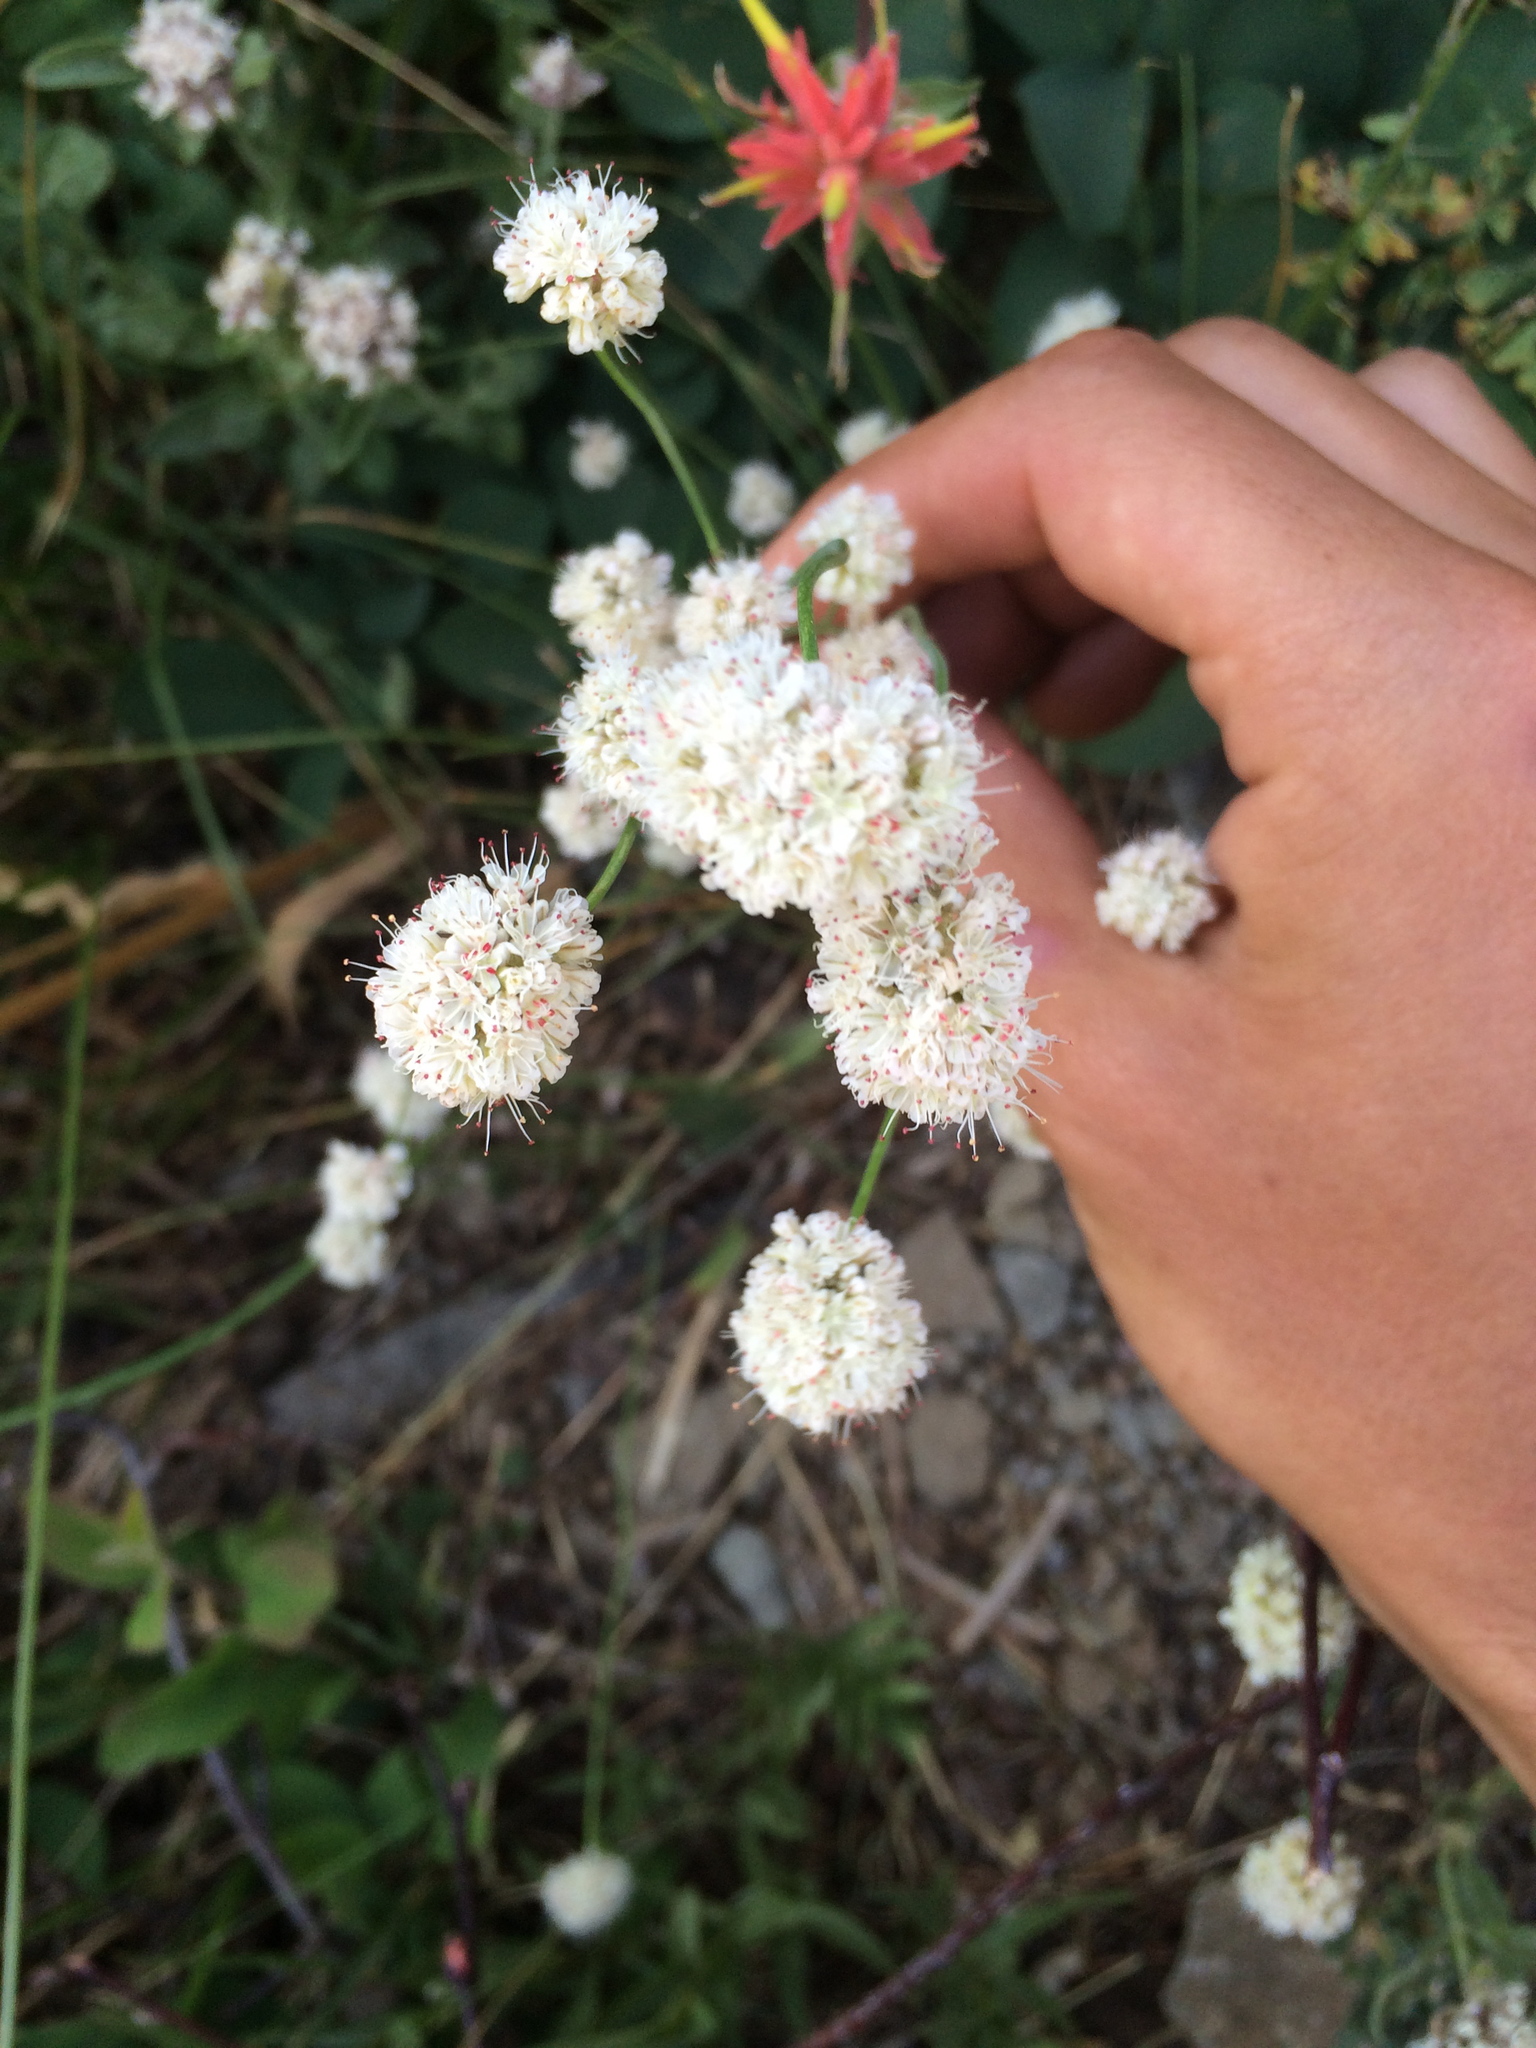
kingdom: Plantae
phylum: Tracheophyta
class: Magnoliopsida
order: Caryophyllales
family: Polygonaceae
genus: Eriogonum
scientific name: Eriogonum nudum
